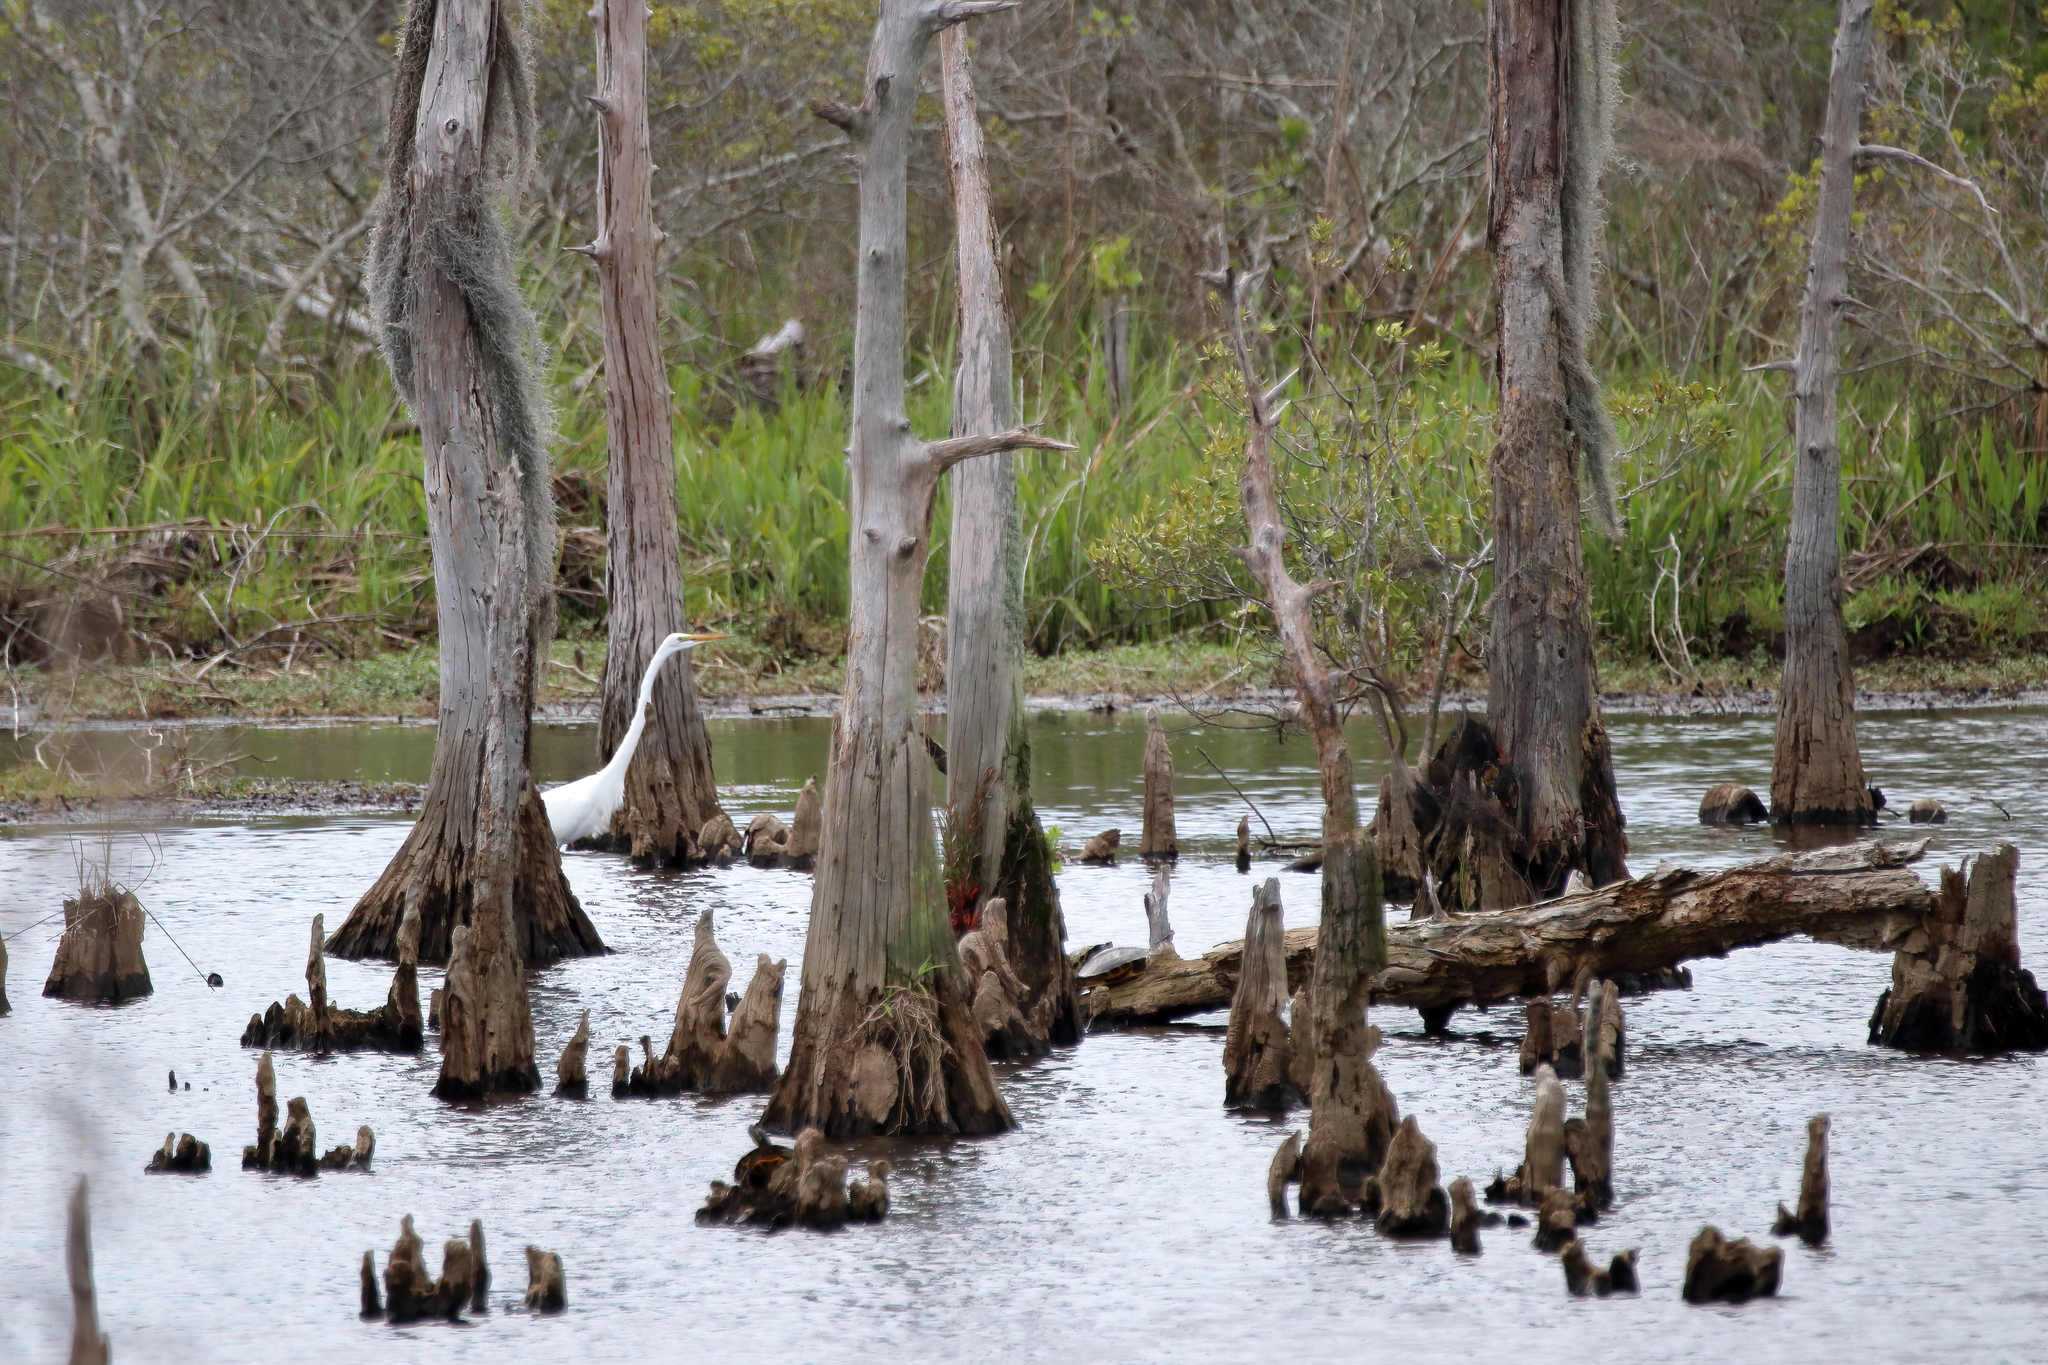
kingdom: Animalia
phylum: Chordata
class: Aves
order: Pelecaniformes
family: Ardeidae
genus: Ardea
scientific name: Ardea alba
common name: Great egret
